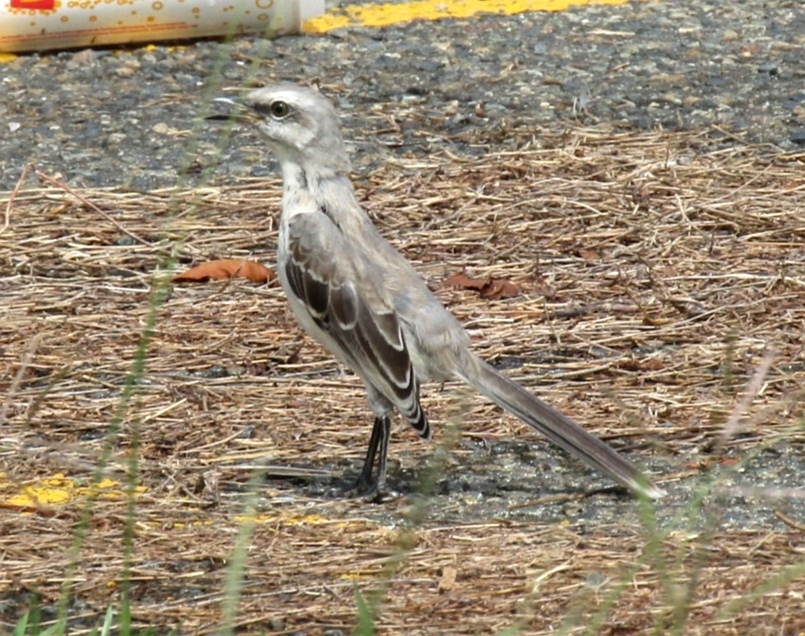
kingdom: Animalia
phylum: Chordata
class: Aves
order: Passeriformes
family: Mimidae
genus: Mimus
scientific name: Mimus gilvus
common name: Tropical mockingbird
